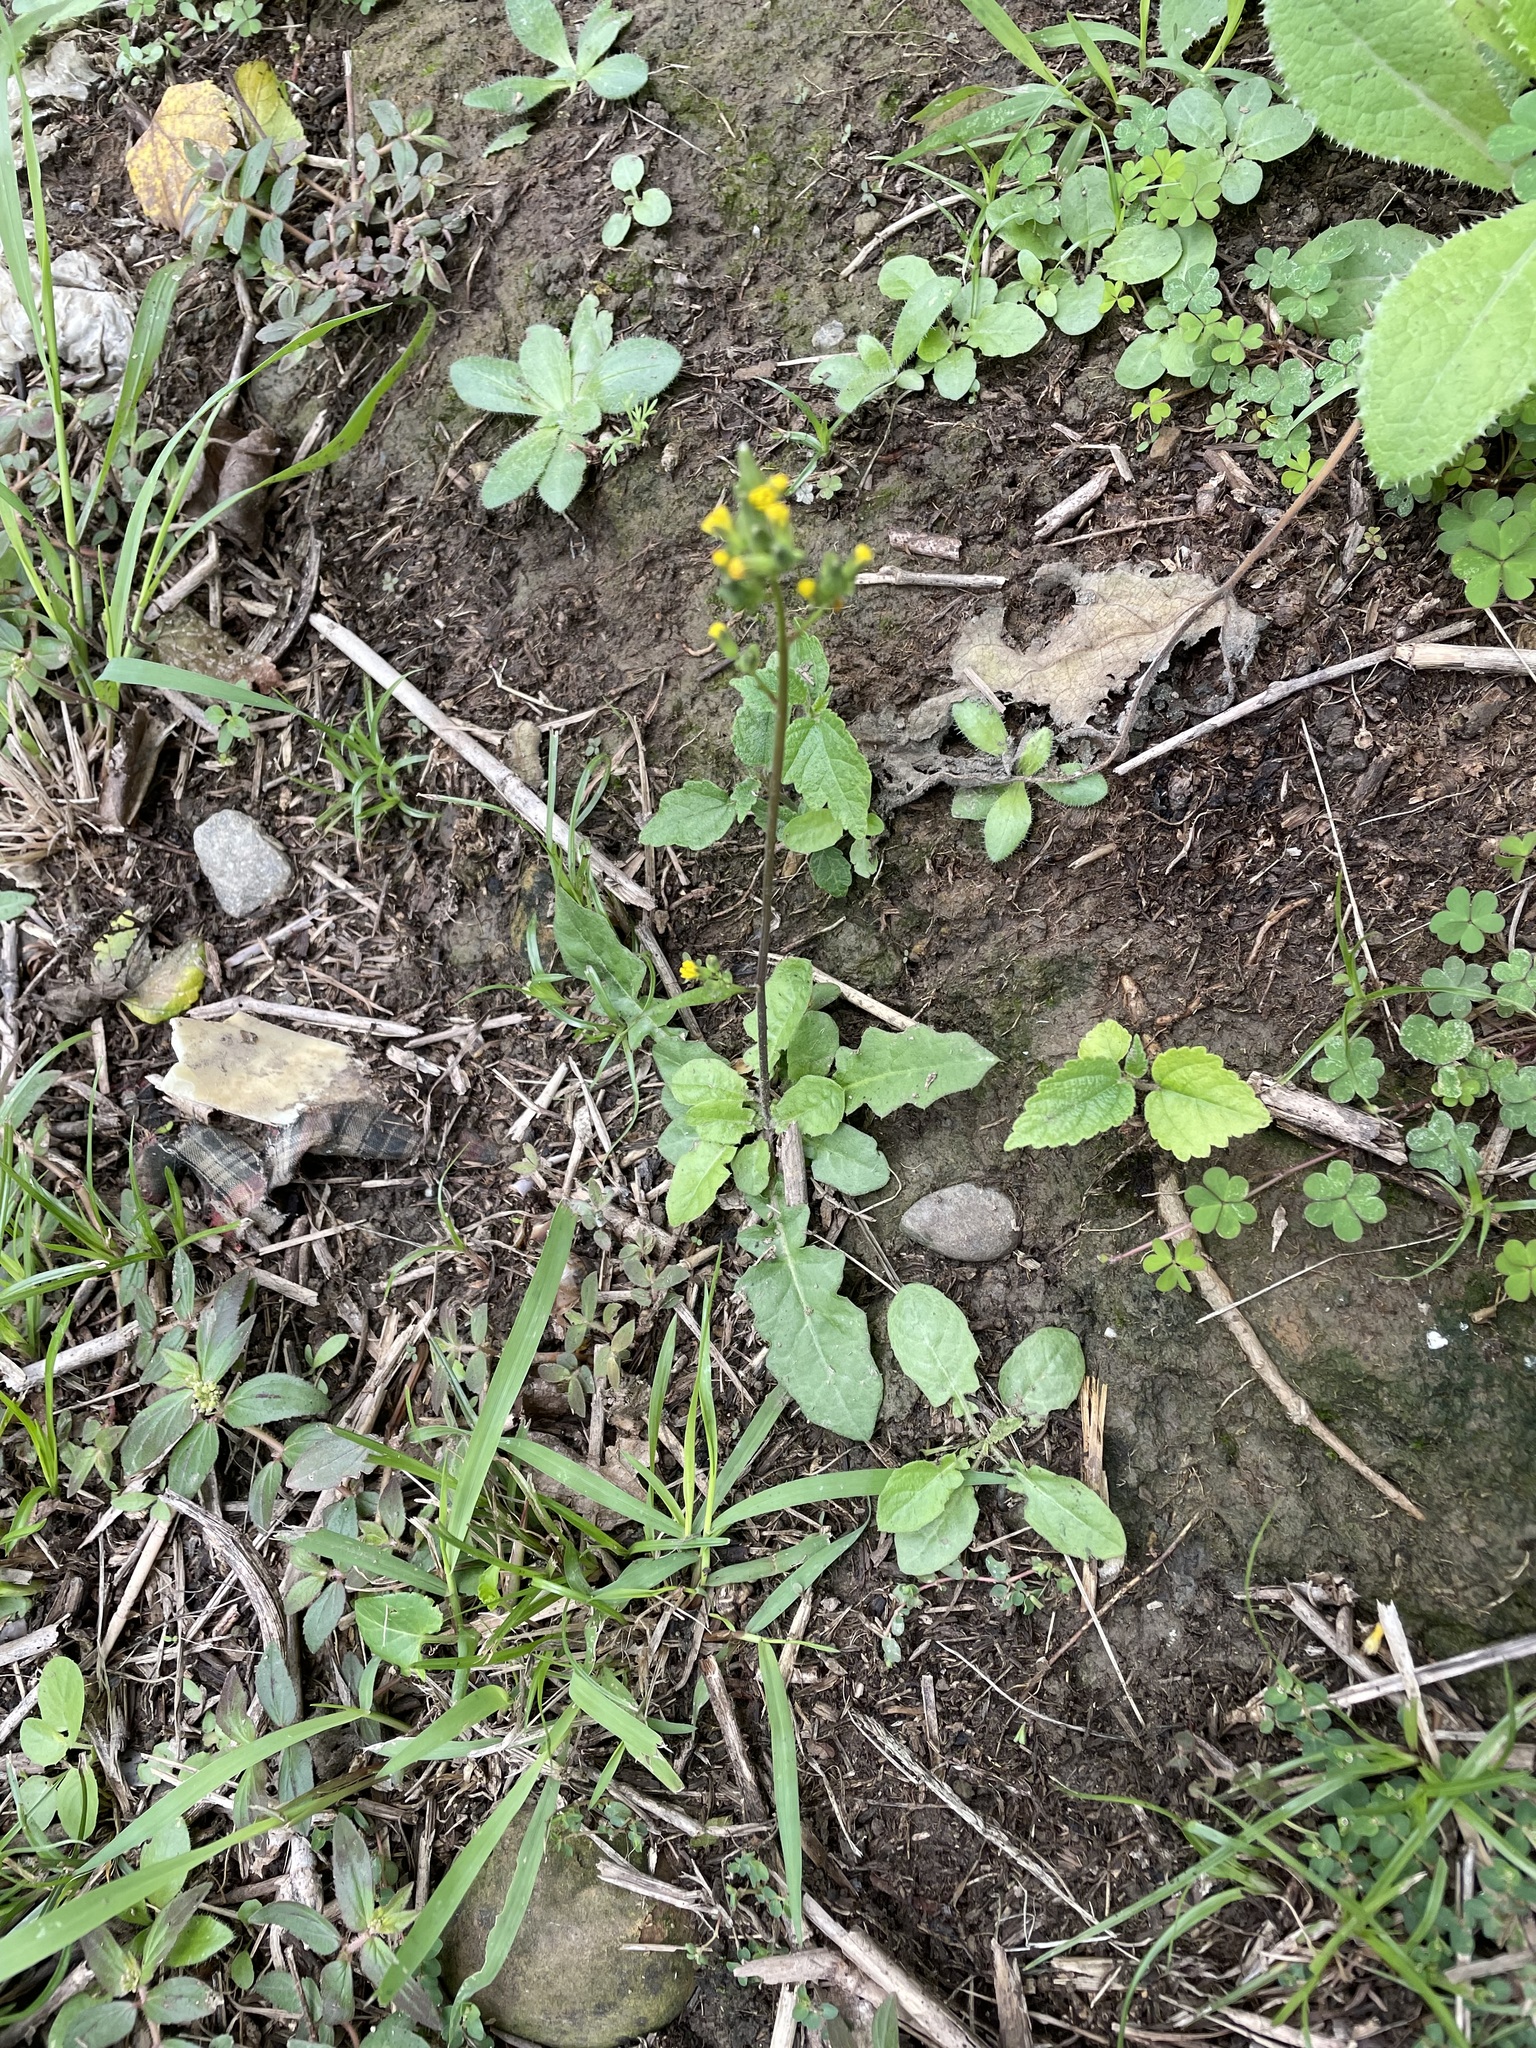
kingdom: Plantae
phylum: Tracheophyta
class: Magnoliopsida
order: Asterales
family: Asteraceae
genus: Youngia
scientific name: Youngia japonica
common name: Oriental false hawksbeard
